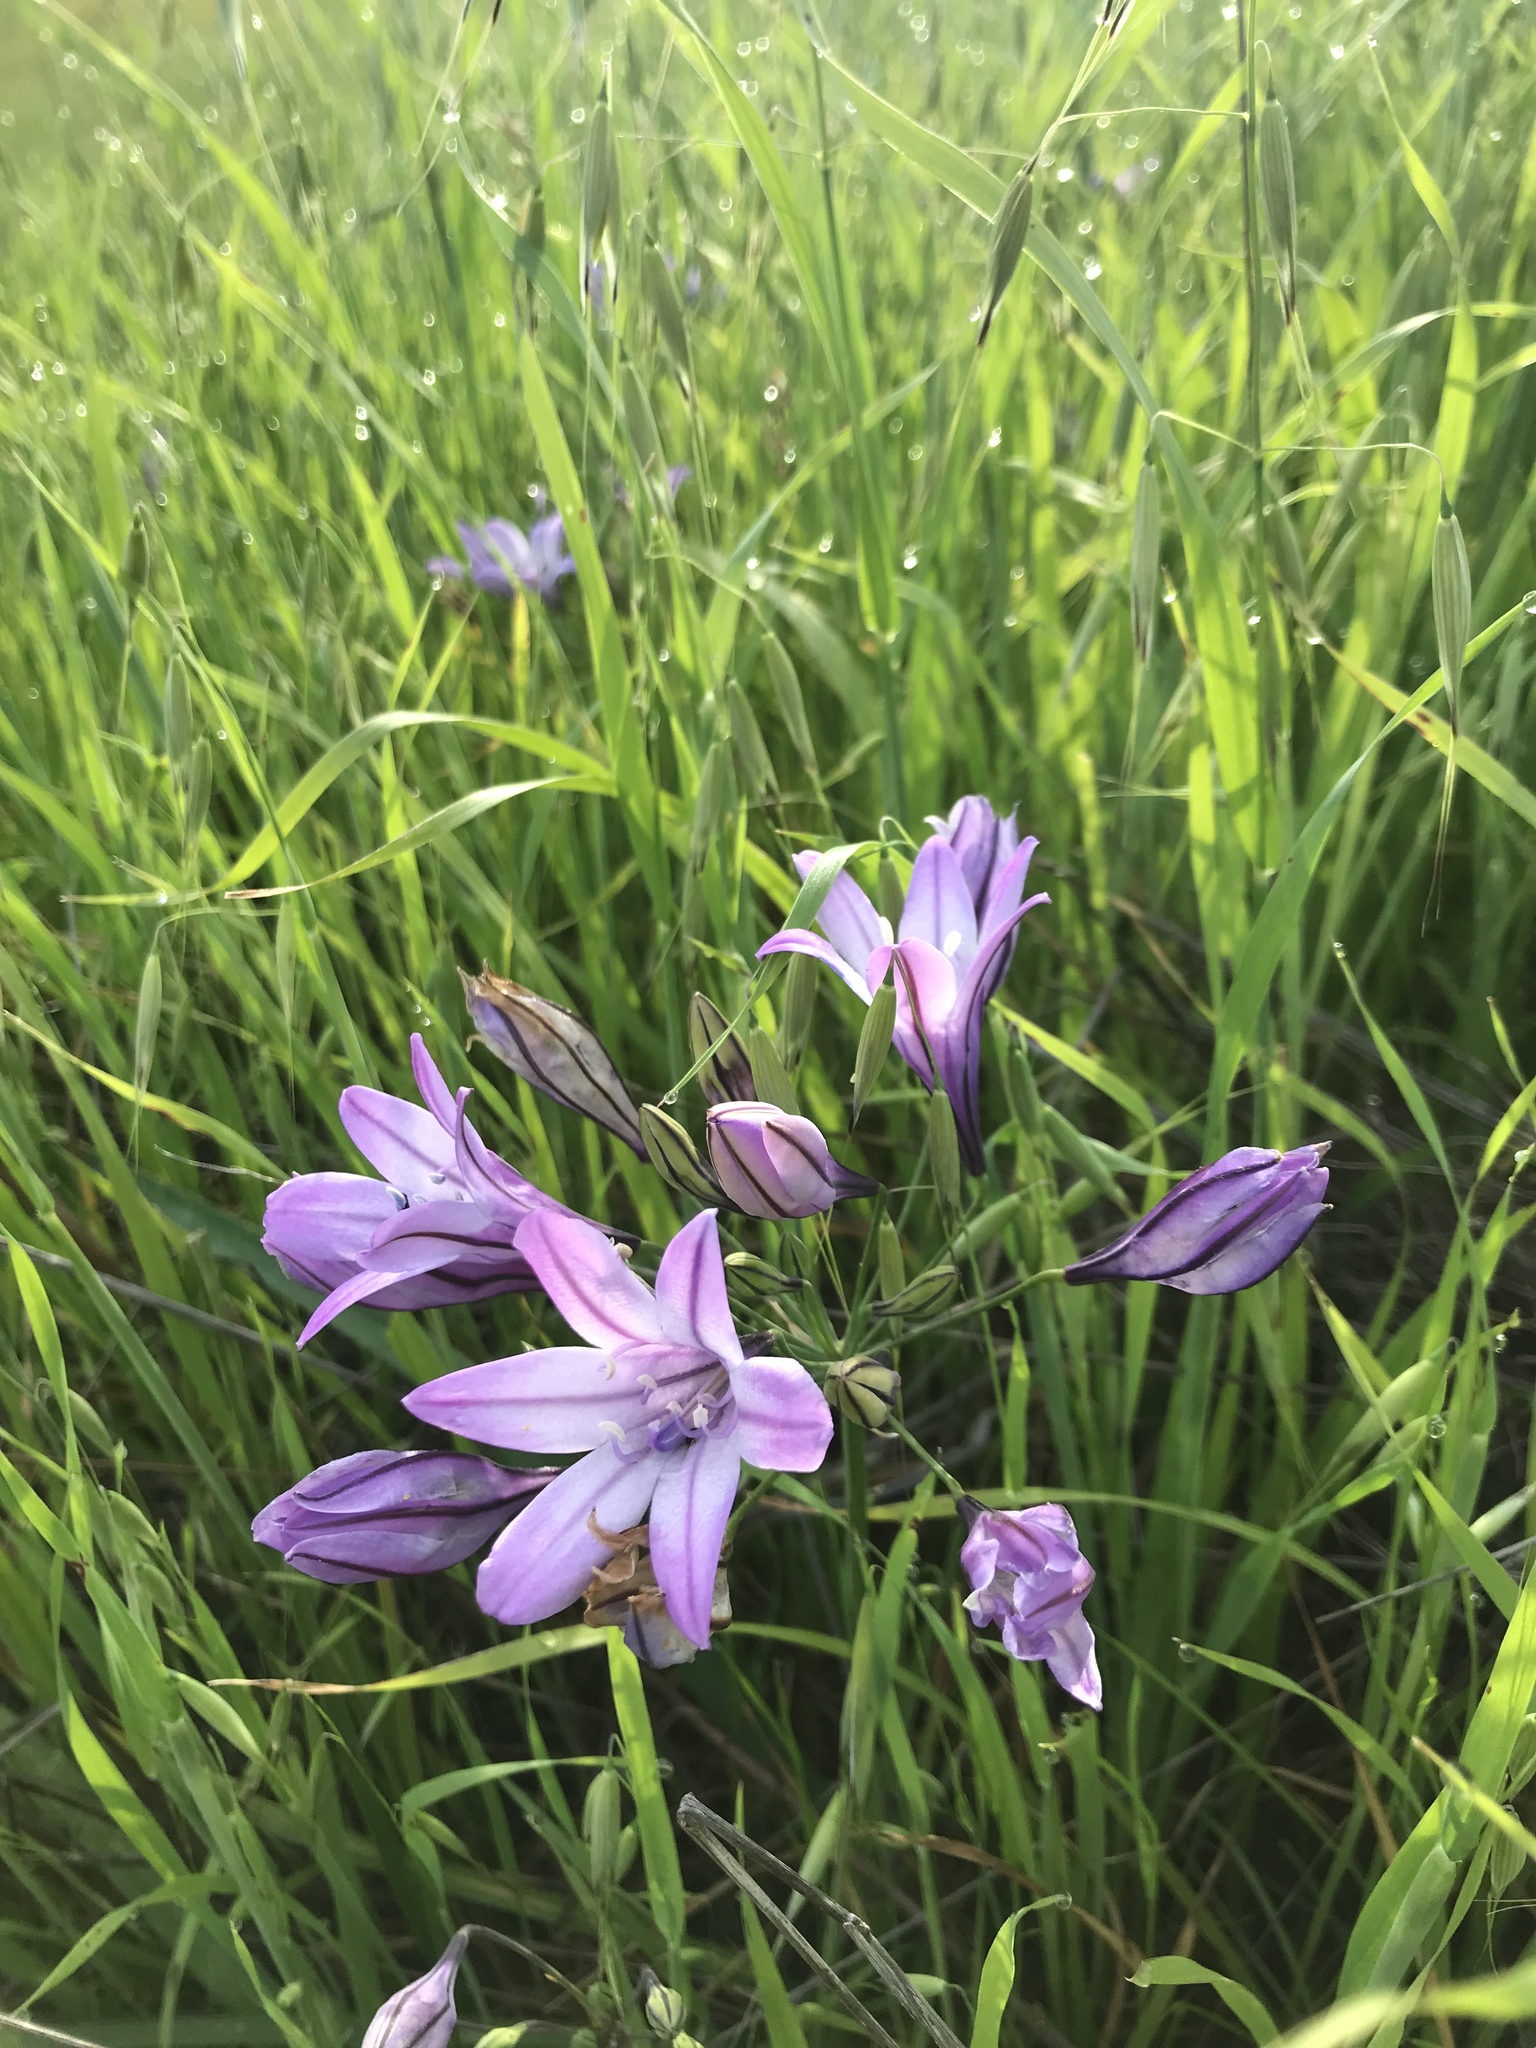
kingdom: Plantae
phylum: Tracheophyta
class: Liliopsida
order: Asparagales
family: Asparagaceae
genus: Triteleia
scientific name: Triteleia laxa
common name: Triplet-lily
